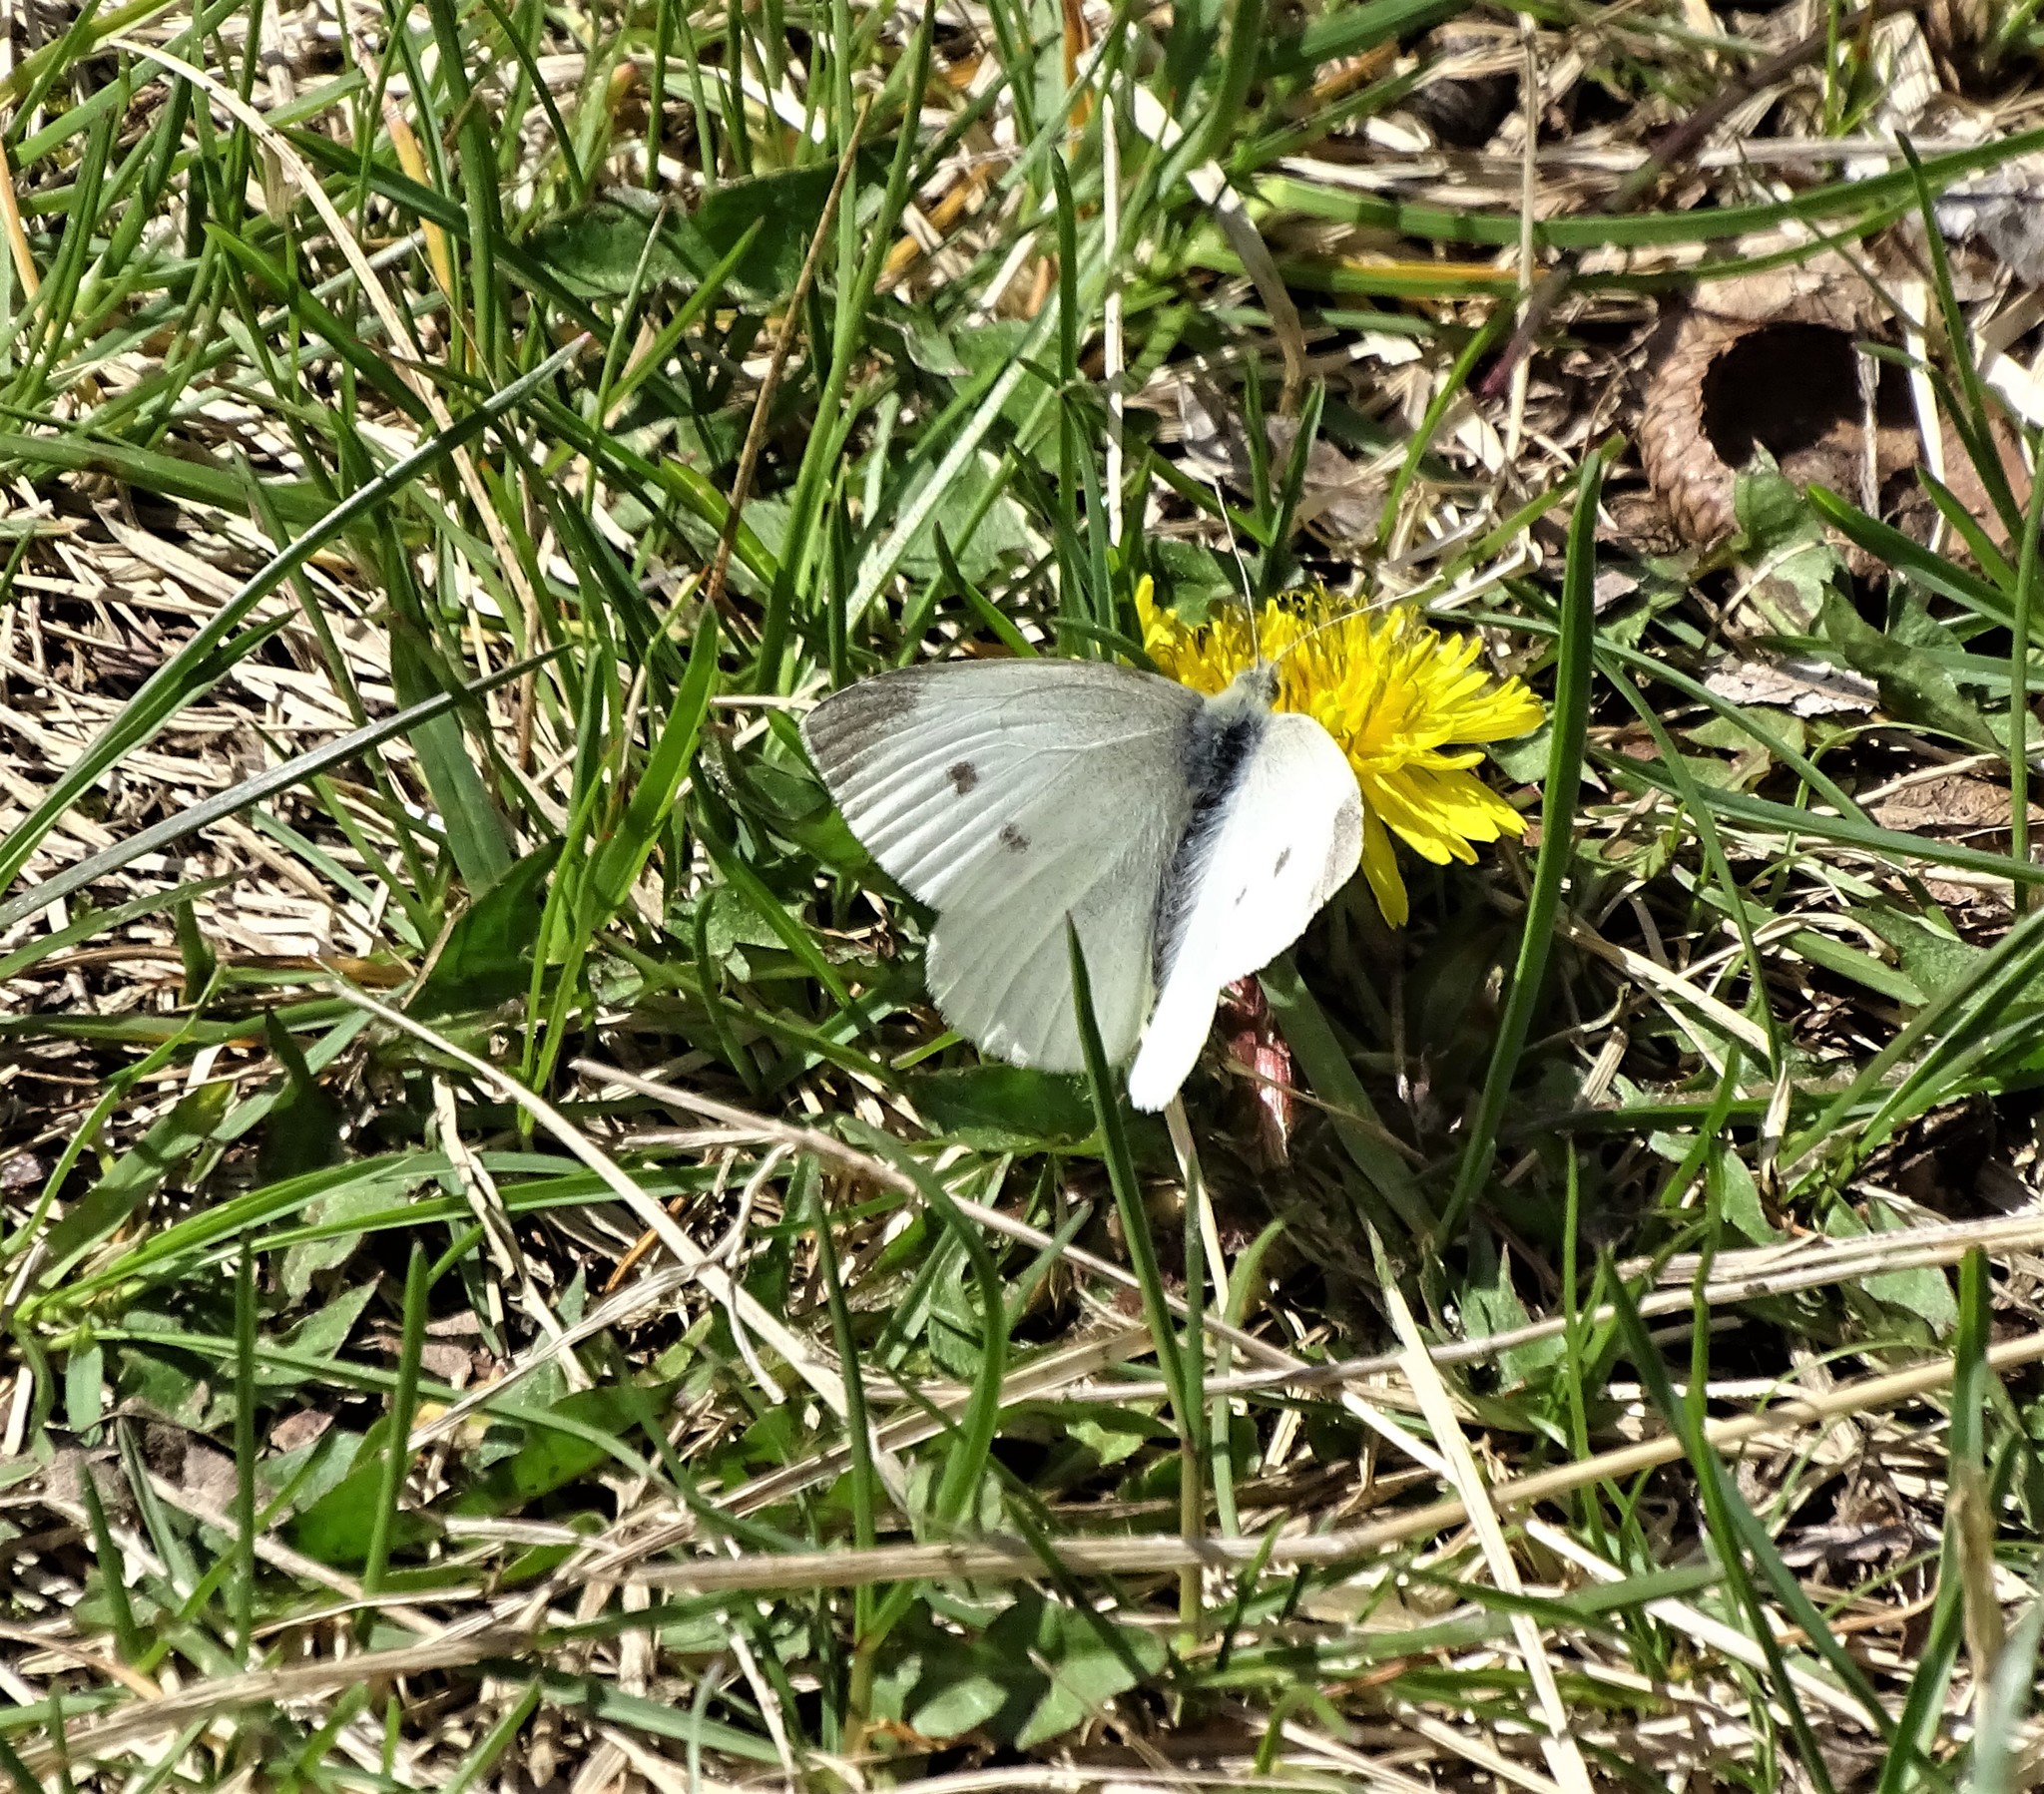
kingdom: Animalia
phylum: Arthropoda
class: Insecta
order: Lepidoptera
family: Pieridae
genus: Pieris
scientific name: Pieris rapae
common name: Small white
